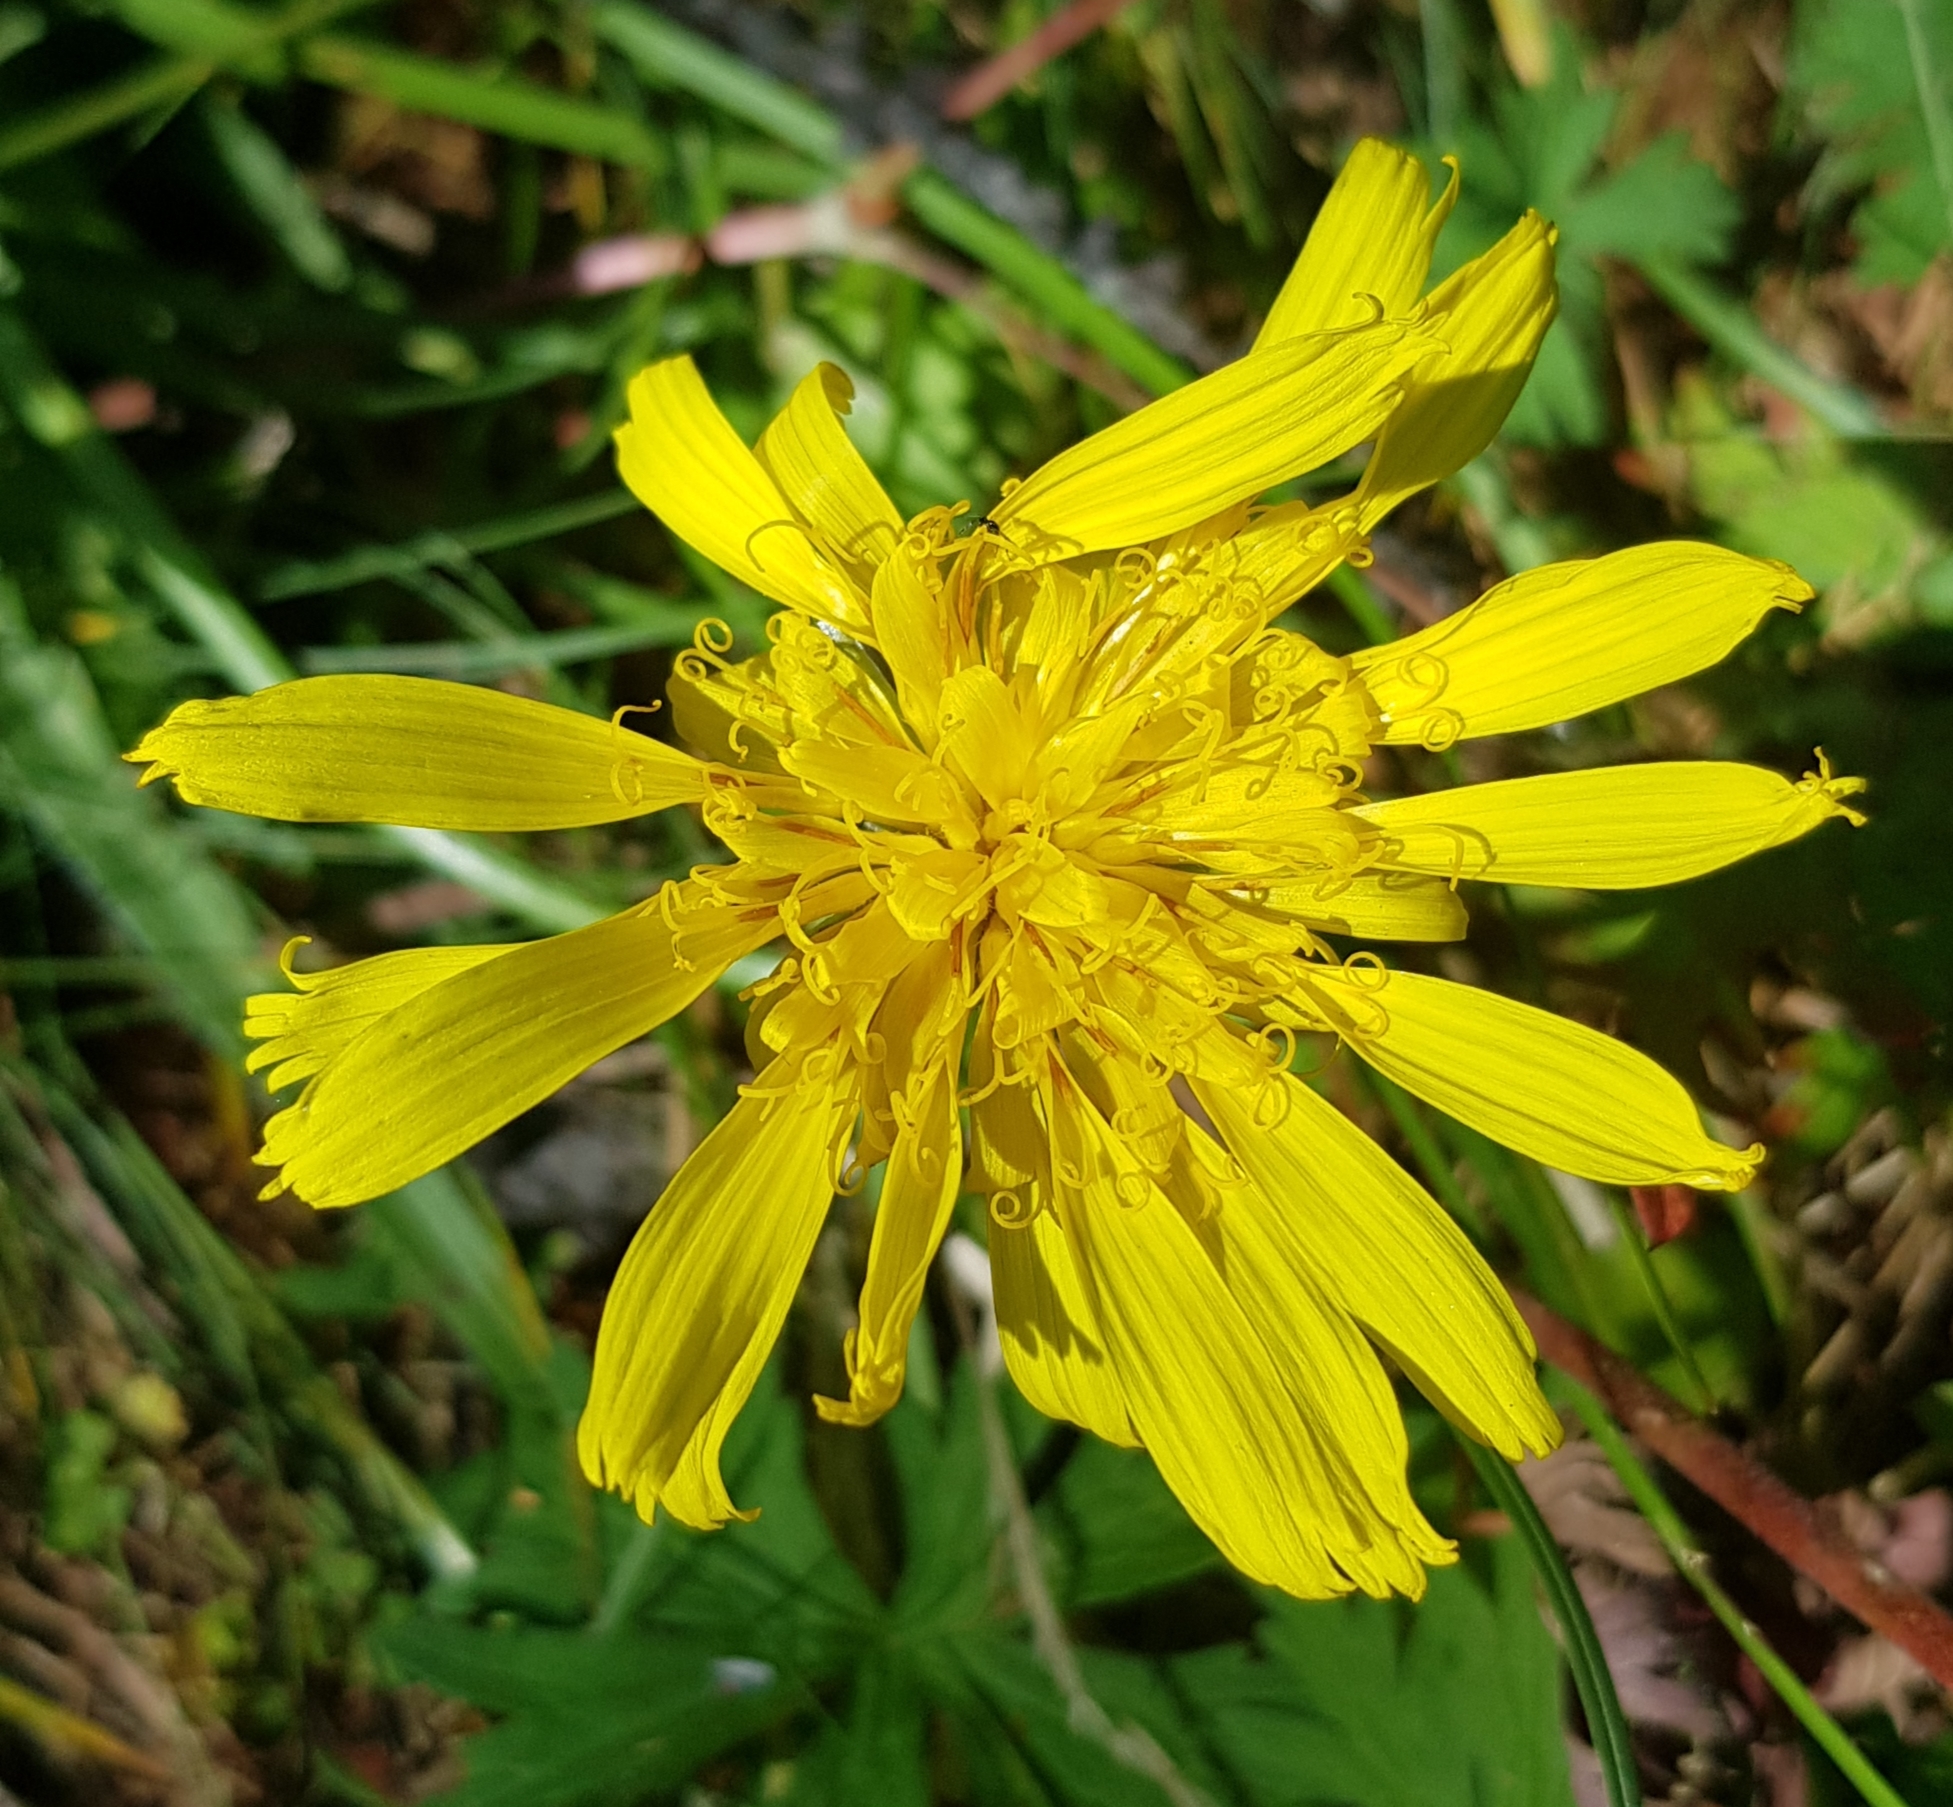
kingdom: Plantae
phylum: Tracheophyta
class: Magnoliopsida
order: Asterales
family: Asteraceae
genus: Scorzonera
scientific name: Scorzonera radiata
